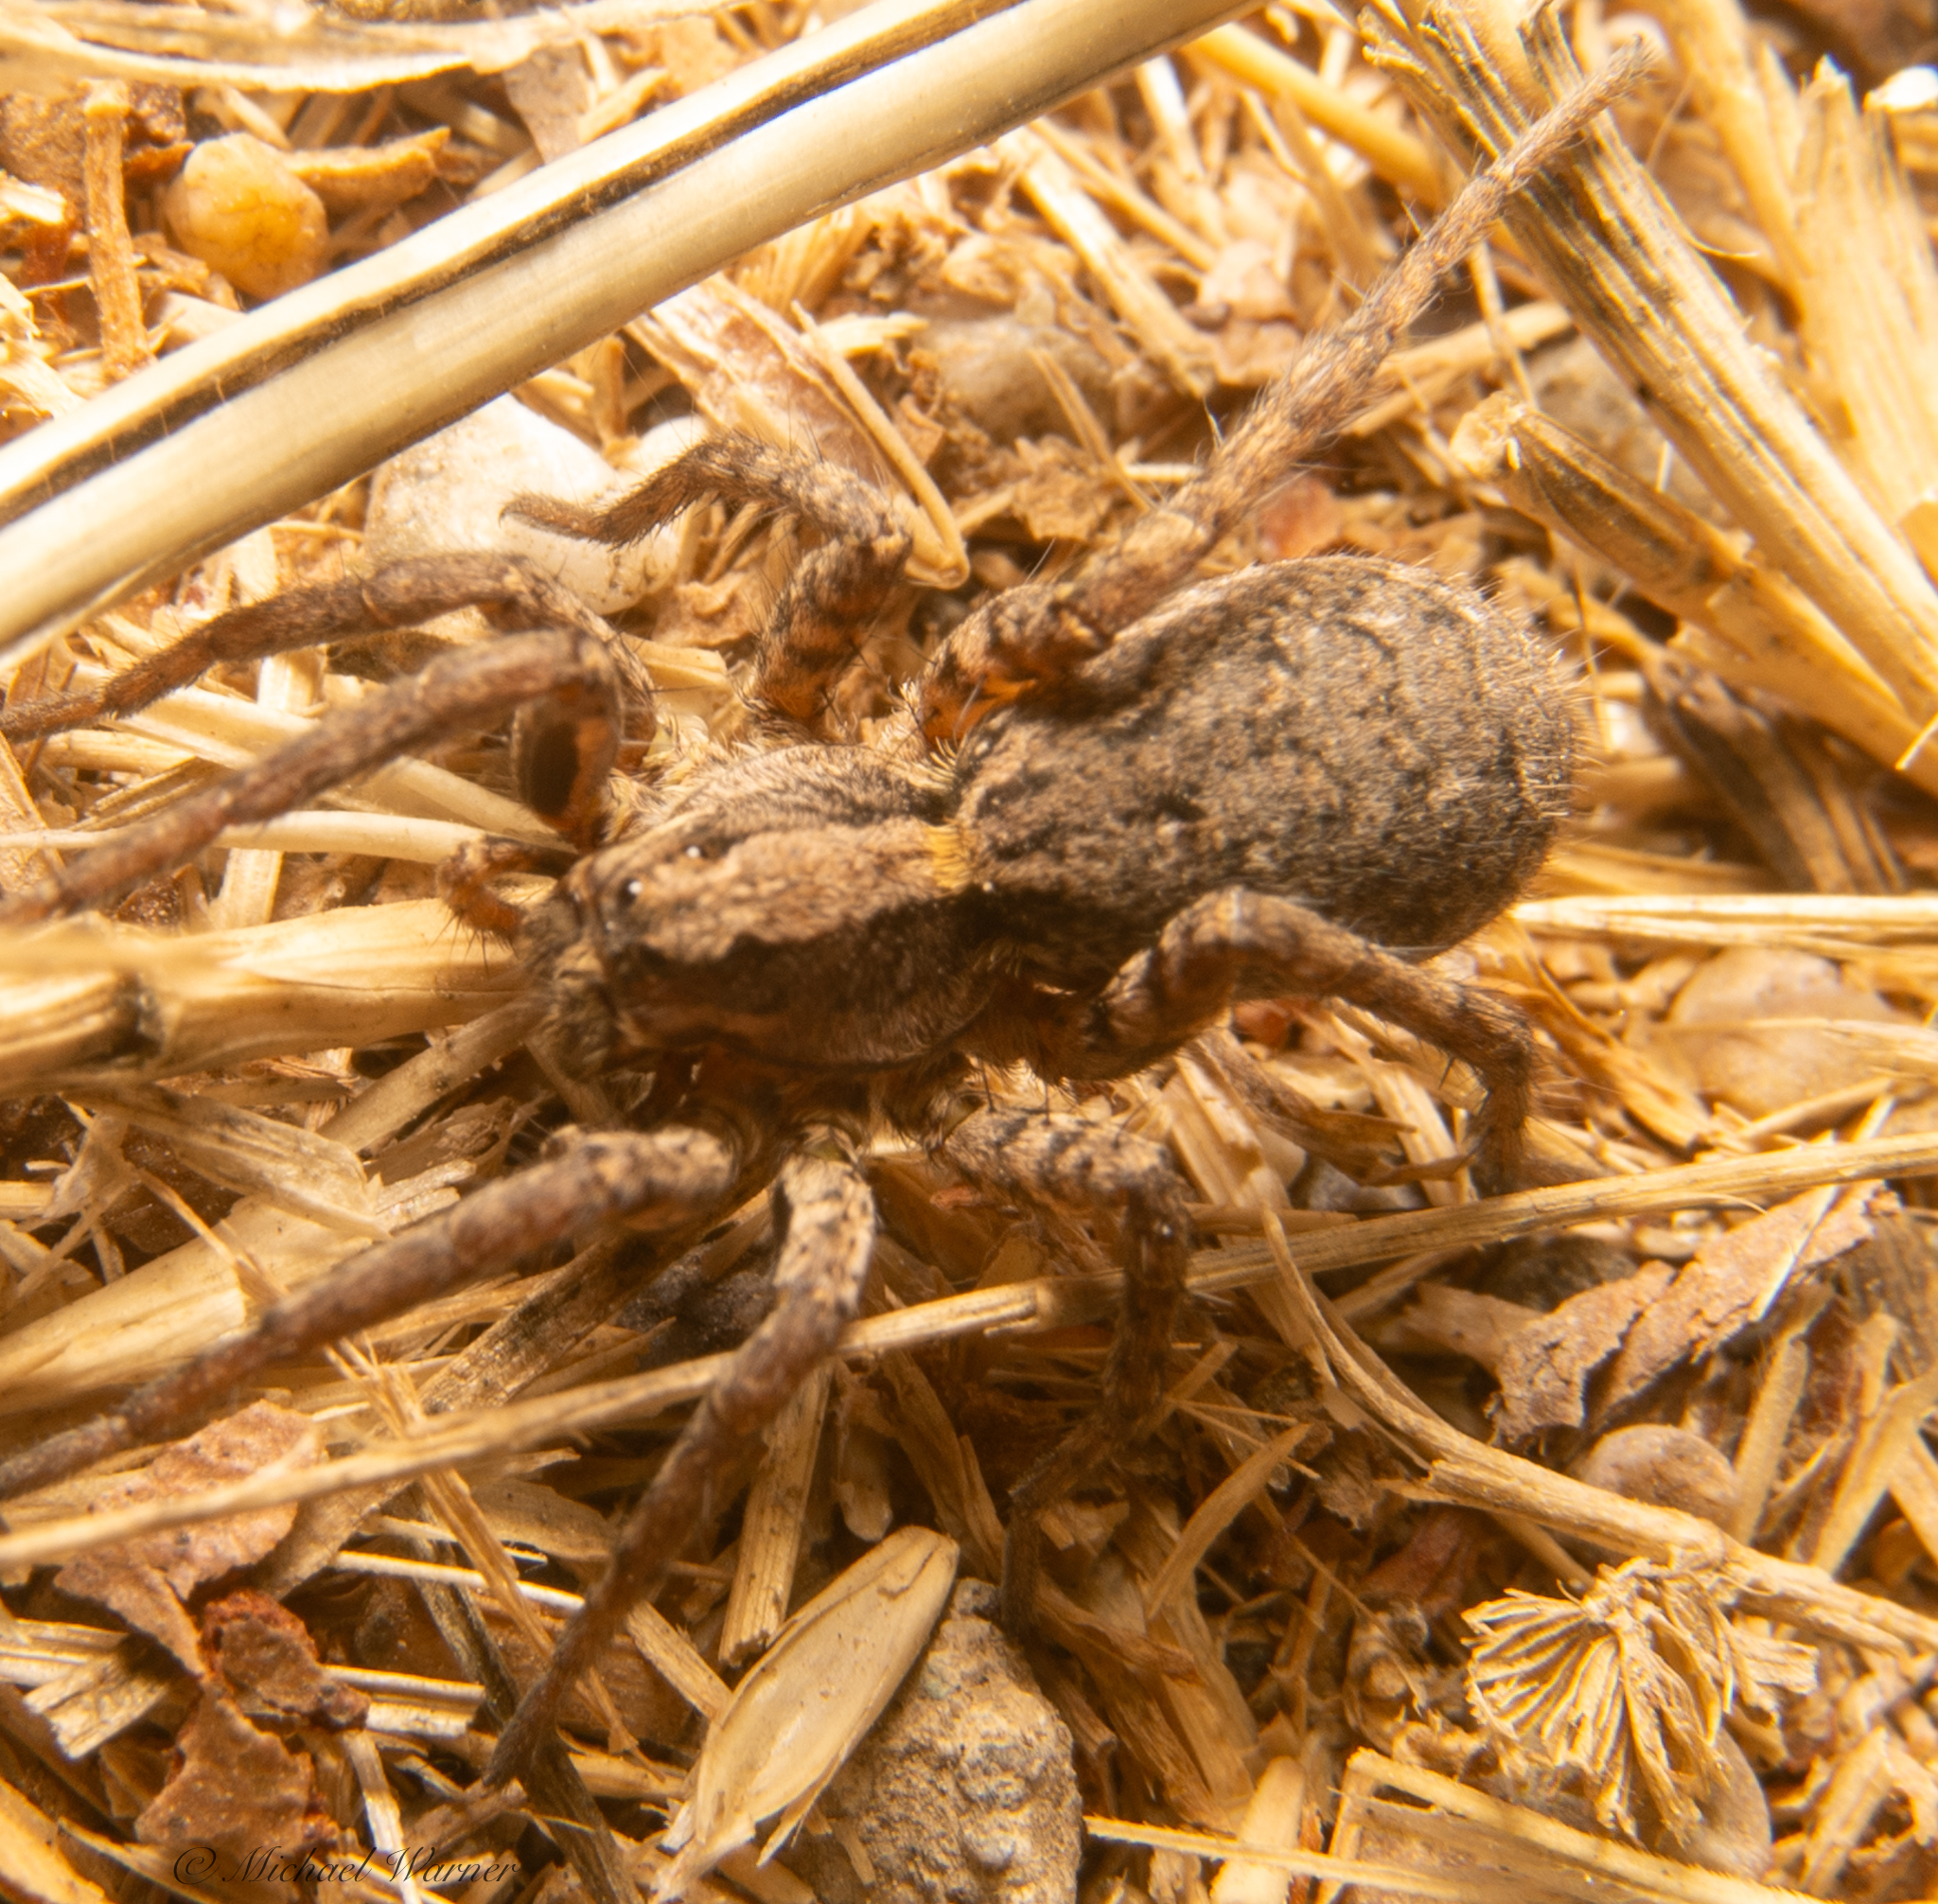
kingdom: Animalia
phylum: Arthropoda
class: Arachnida
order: Araneae
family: Lycosidae
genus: Alopecosa
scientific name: Alopecosa kochi
